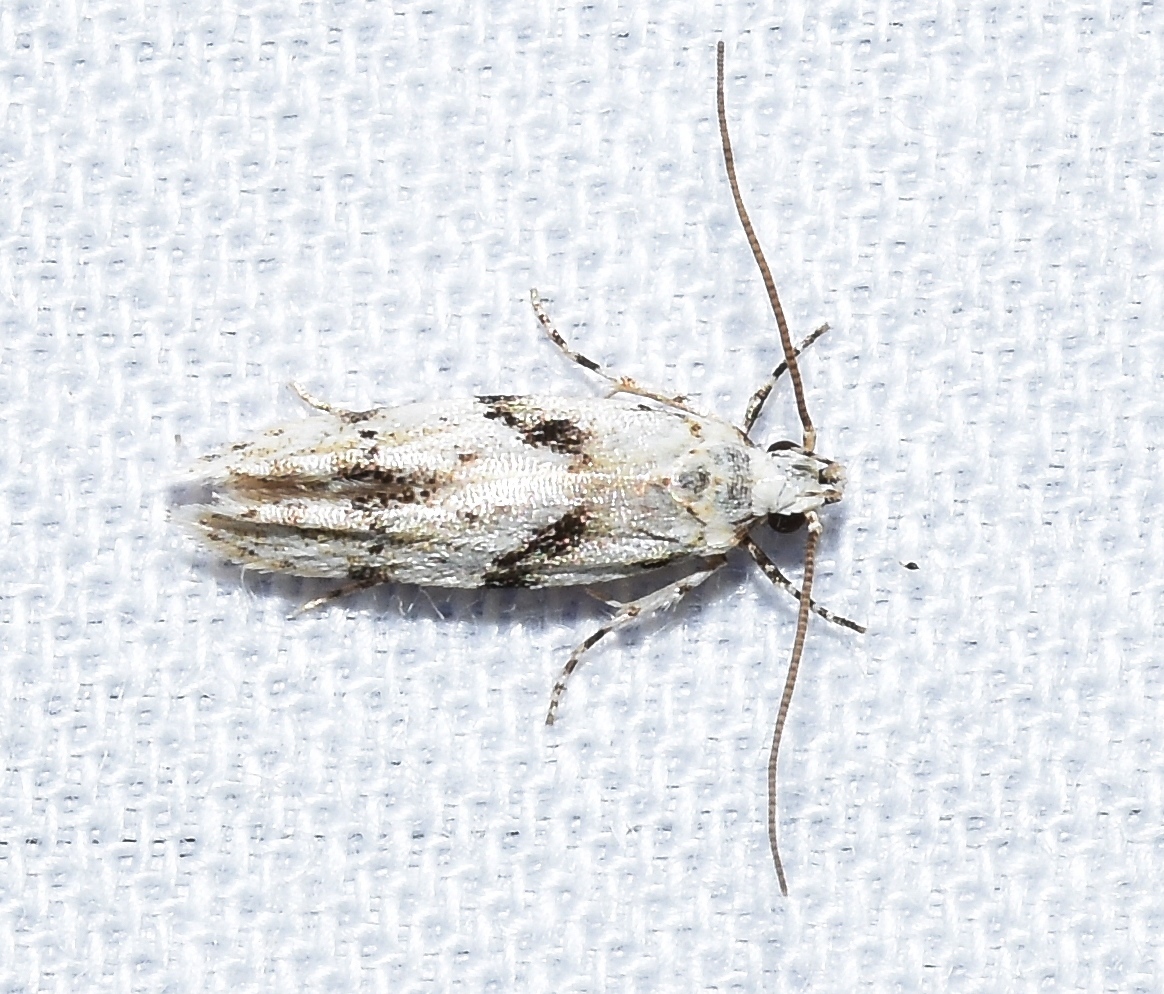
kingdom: Animalia
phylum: Arthropoda
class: Insecta
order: Lepidoptera
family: Gelechiidae
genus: Arogalea
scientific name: Arogalea cristifasciella
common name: White stripe-backed moth
